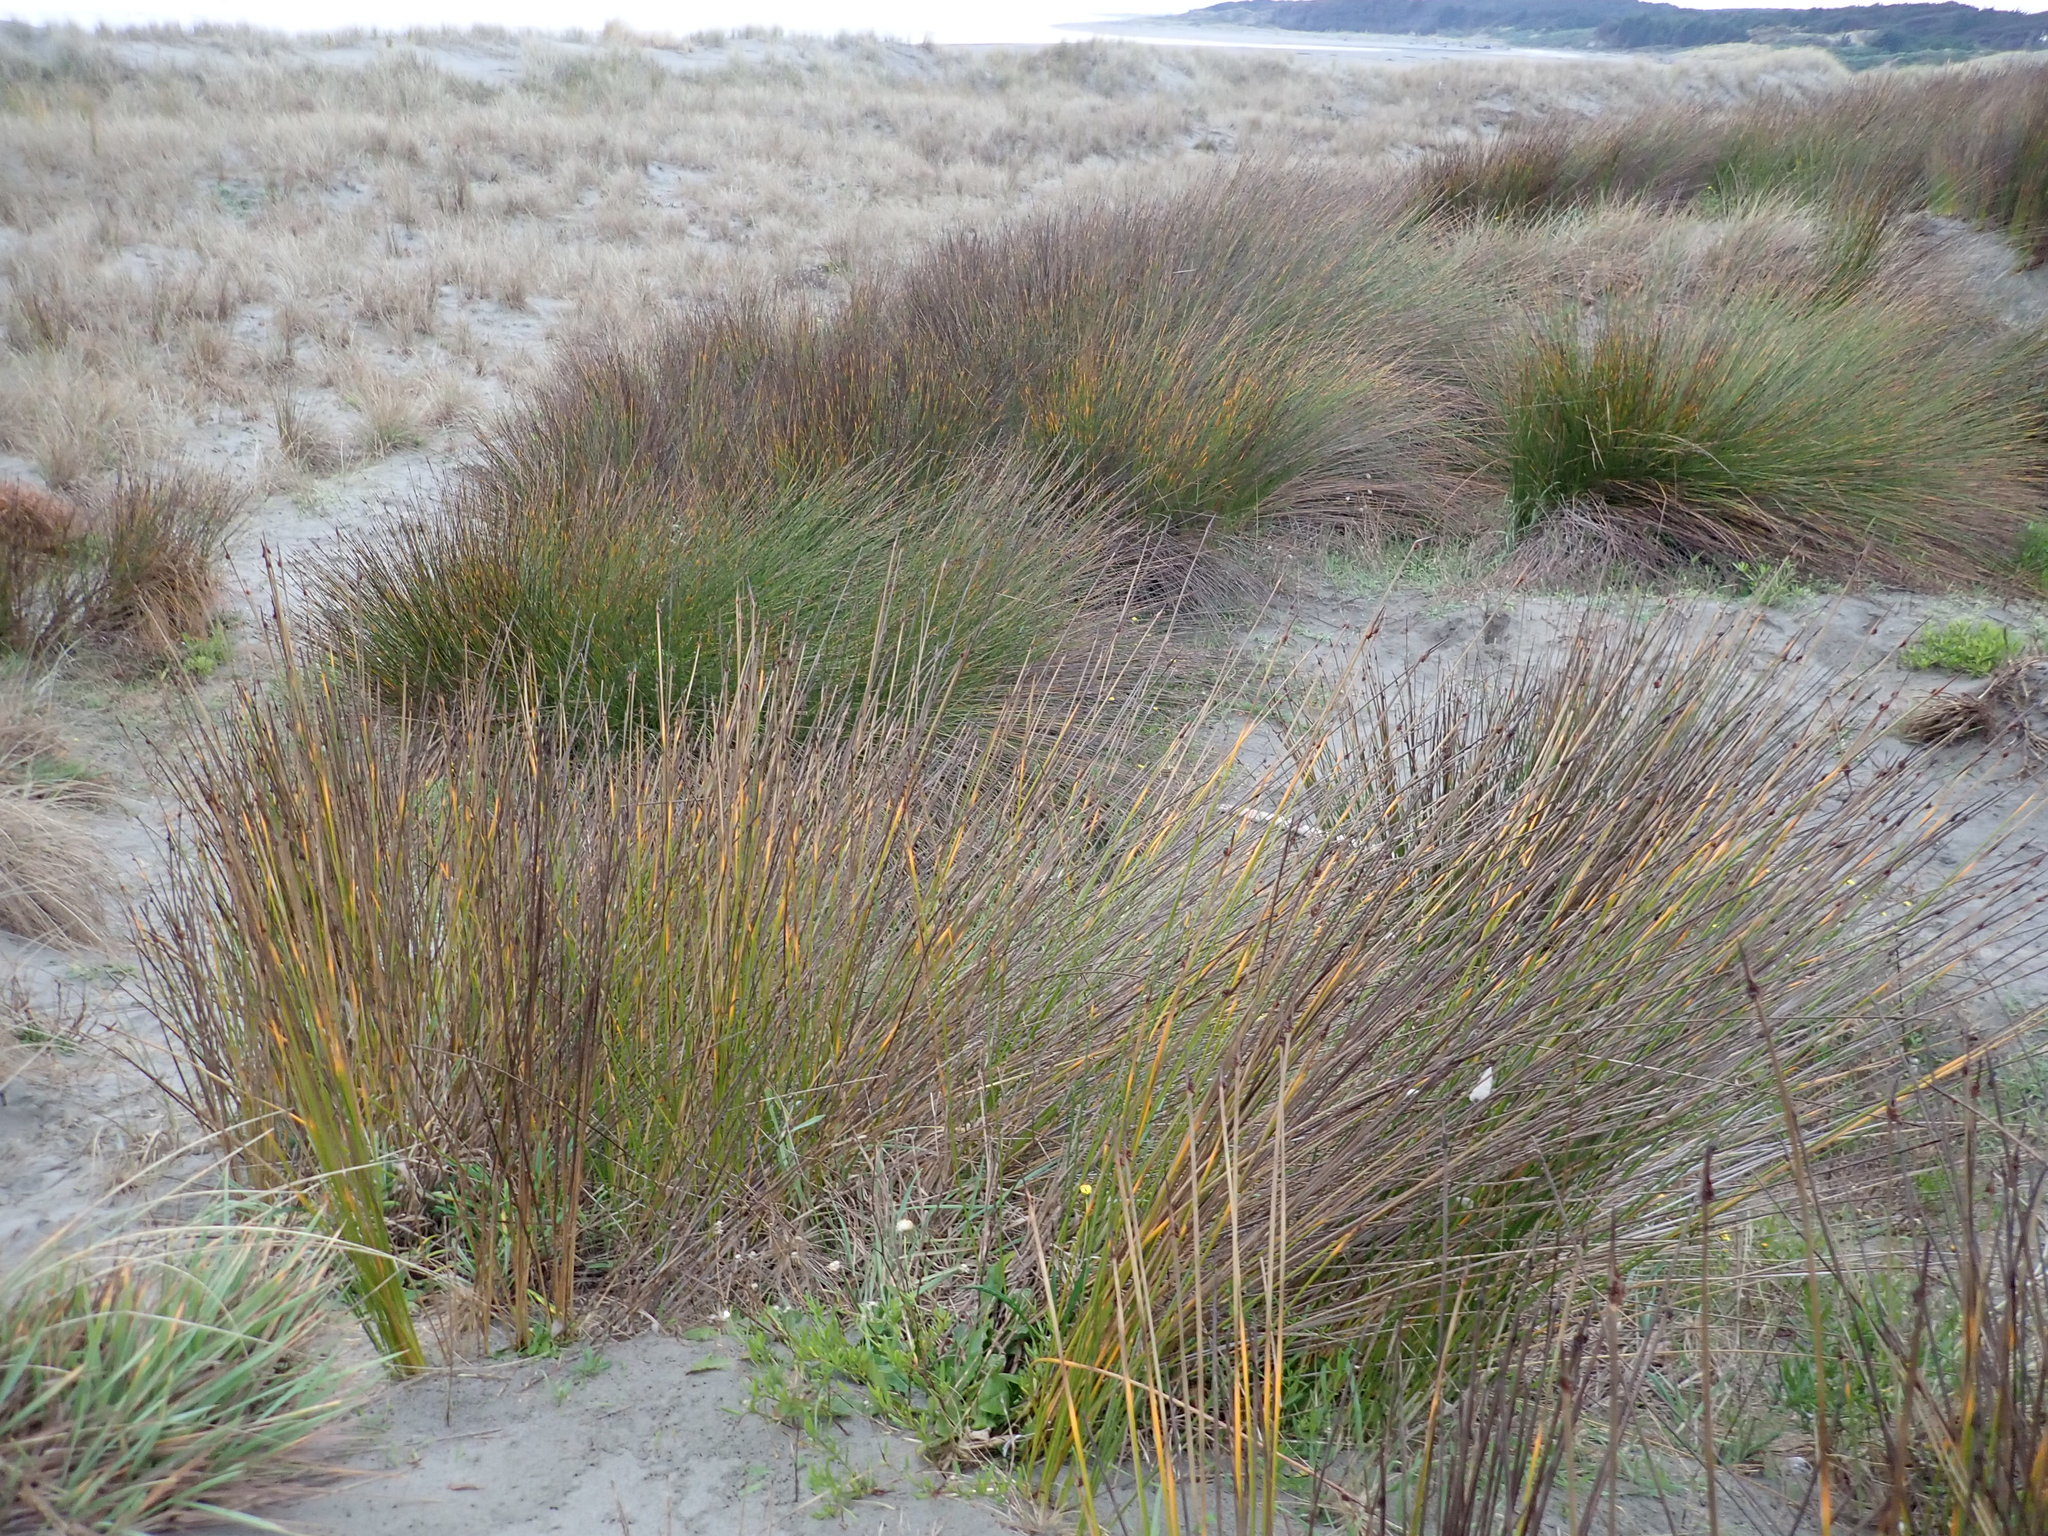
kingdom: Plantae
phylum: Tracheophyta
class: Liliopsida
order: Poales
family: Cyperaceae
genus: Ficinia
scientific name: Ficinia nodosa
